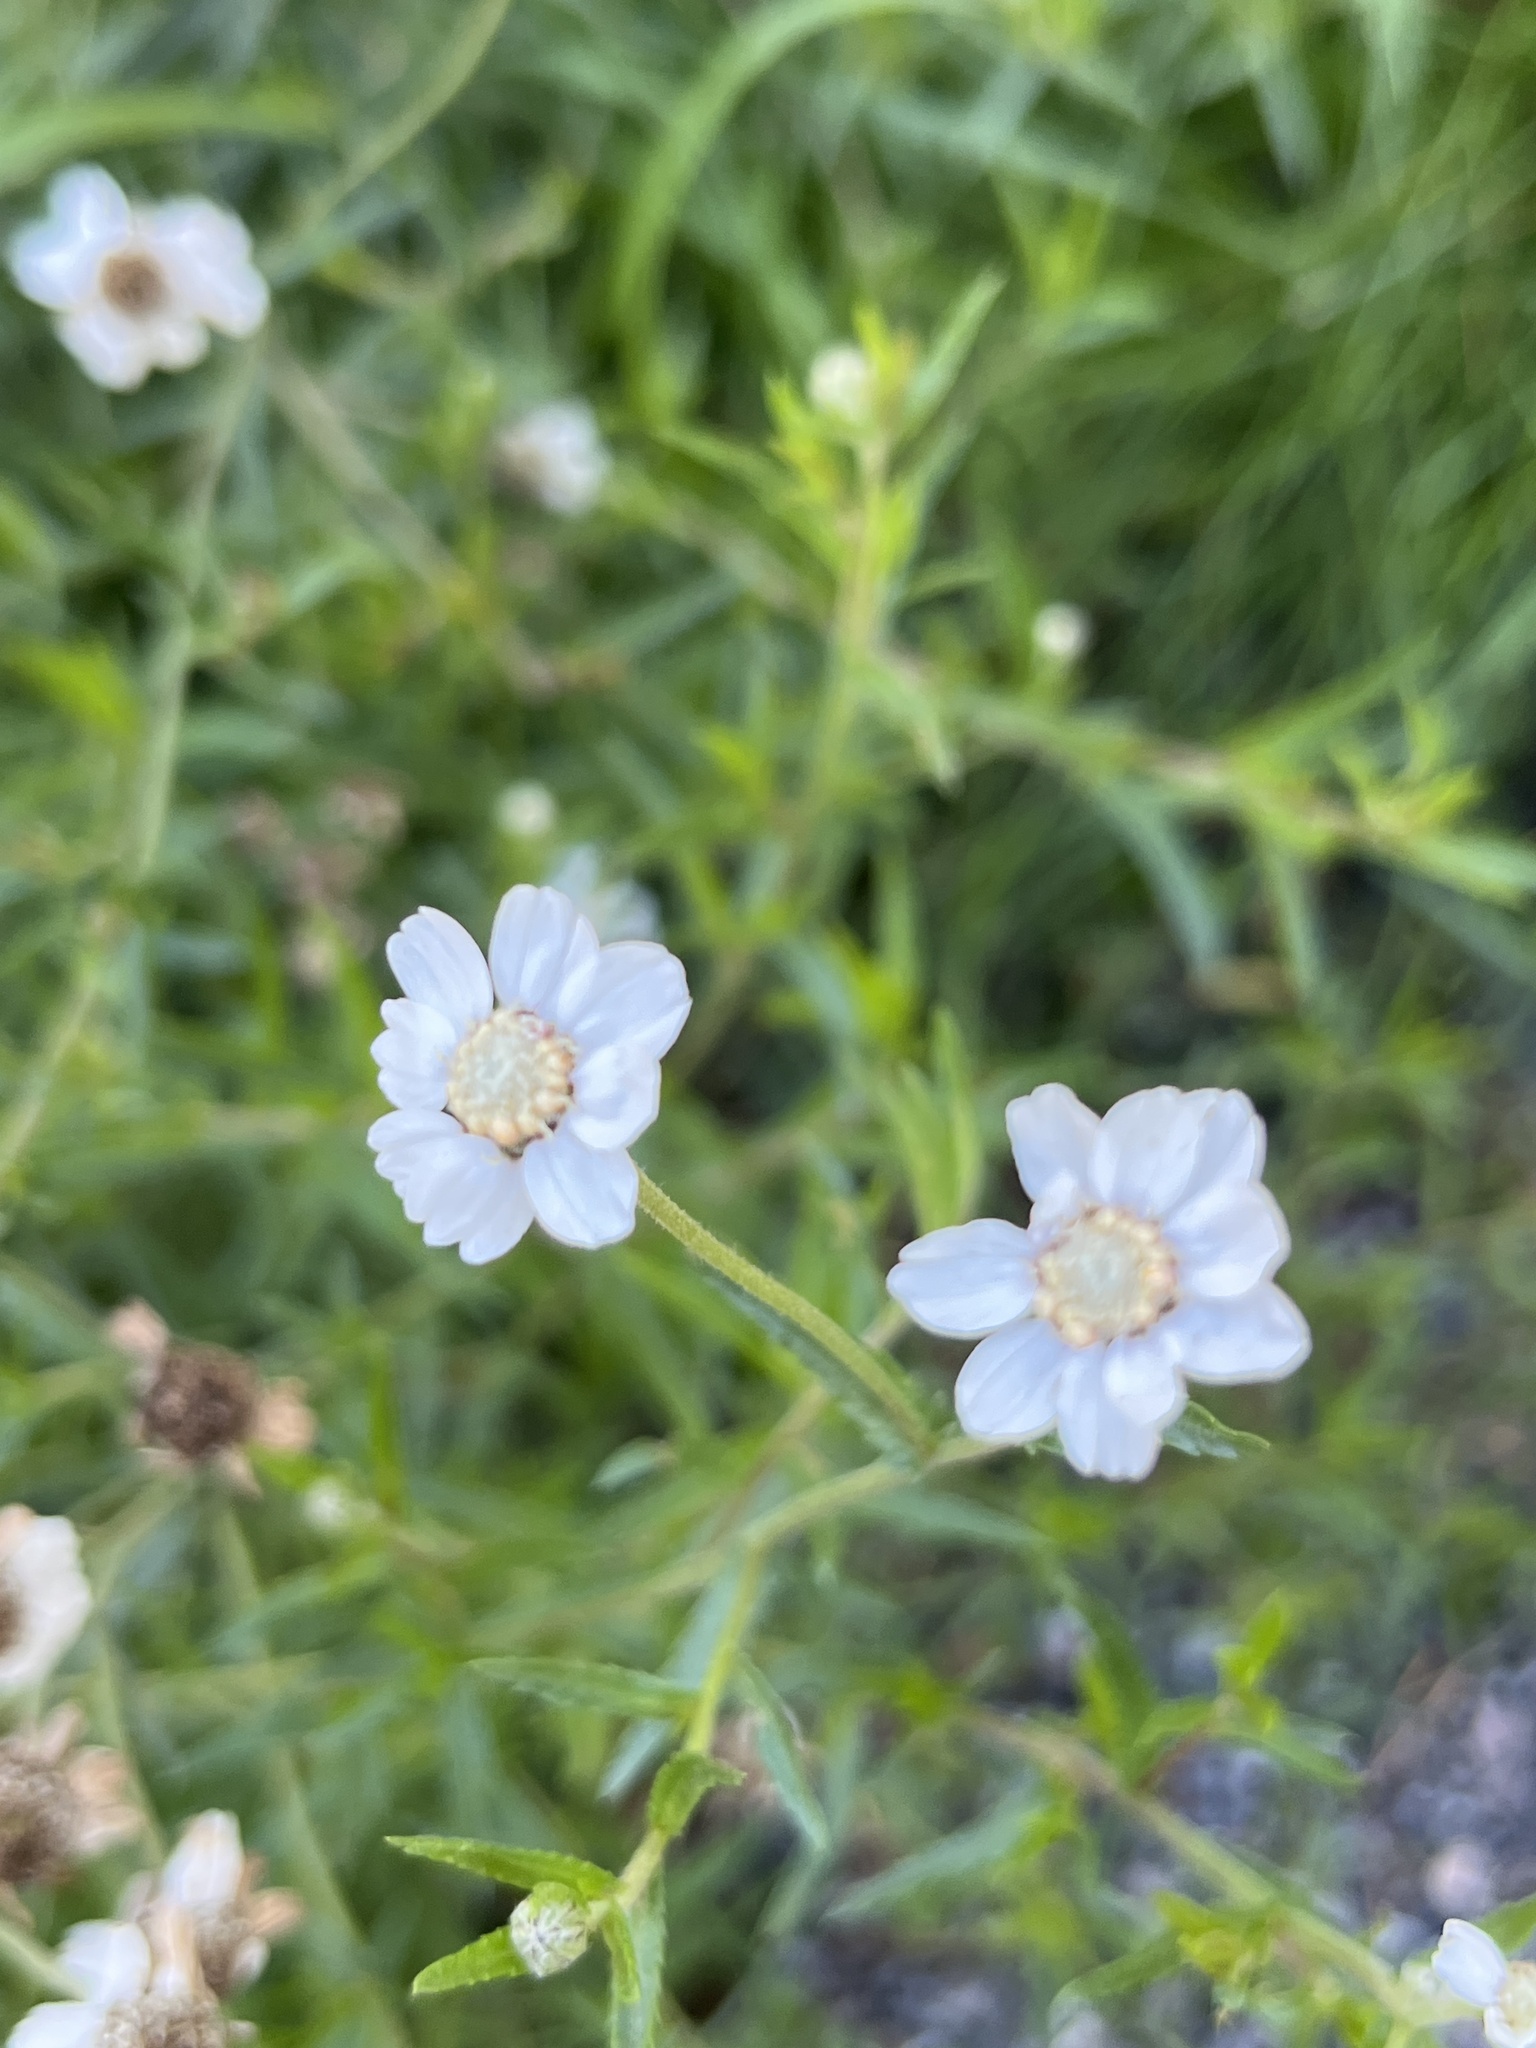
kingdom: Plantae
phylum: Tracheophyta
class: Magnoliopsida
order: Asterales
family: Asteraceae
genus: Achillea
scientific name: Achillea ptarmica
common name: Sneezeweed
